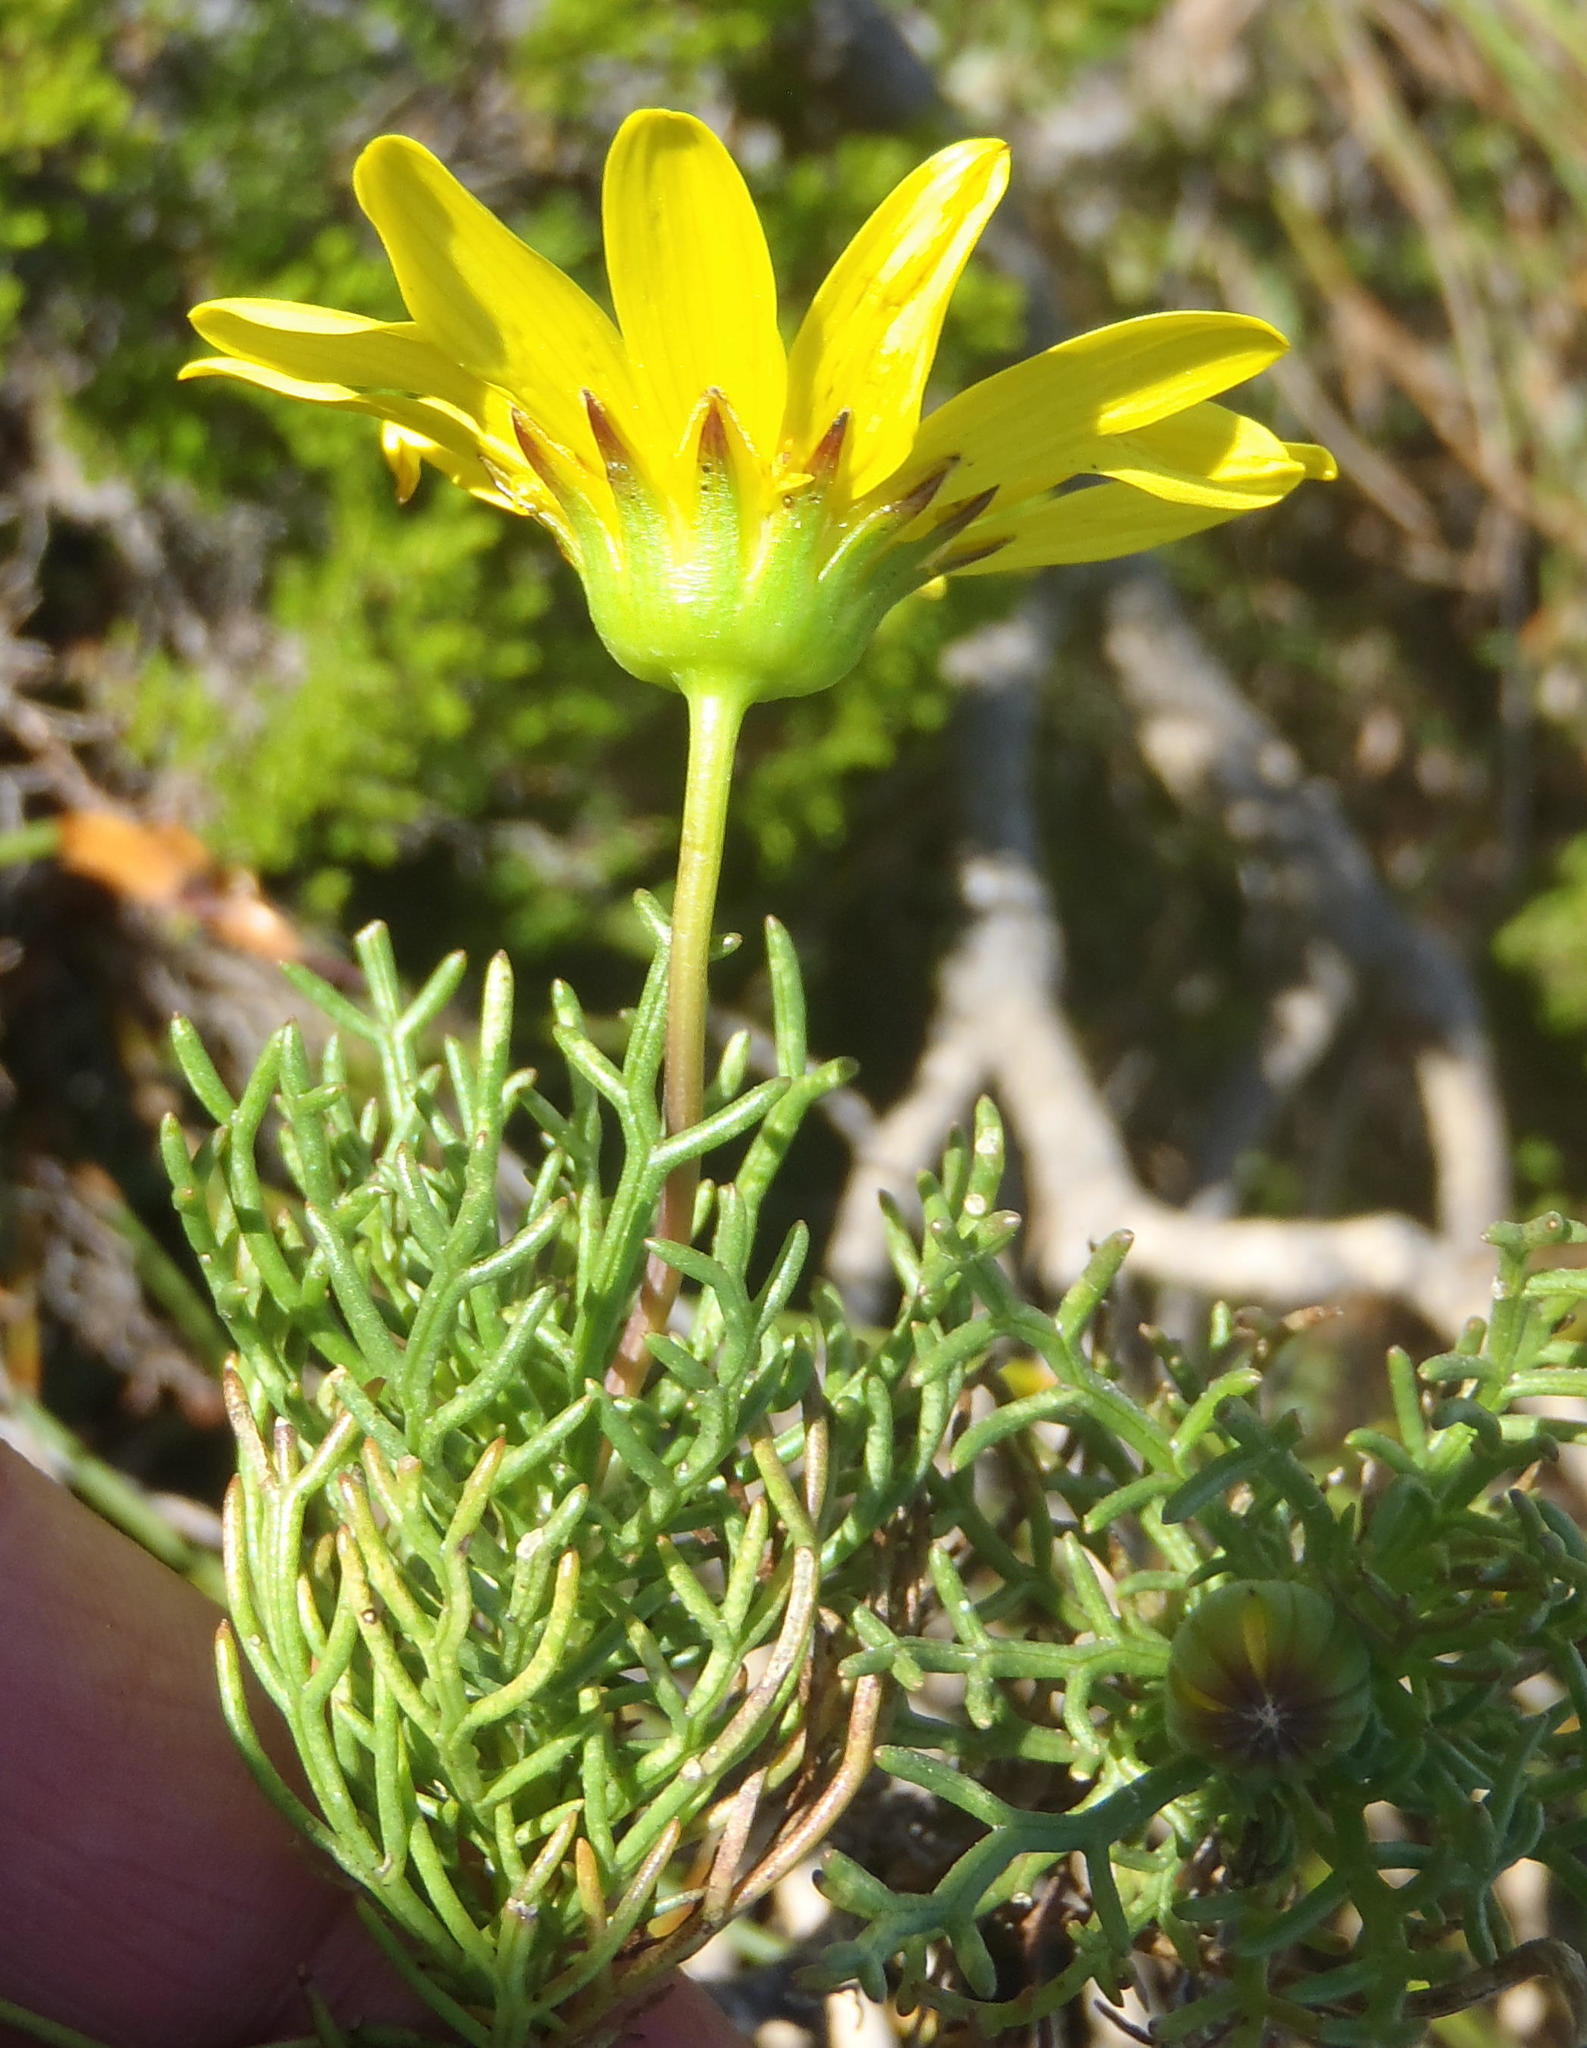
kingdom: Plantae
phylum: Tracheophyta
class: Magnoliopsida
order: Asterales
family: Asteraceae
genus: Euryops
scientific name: Euryops abrotanifolius
